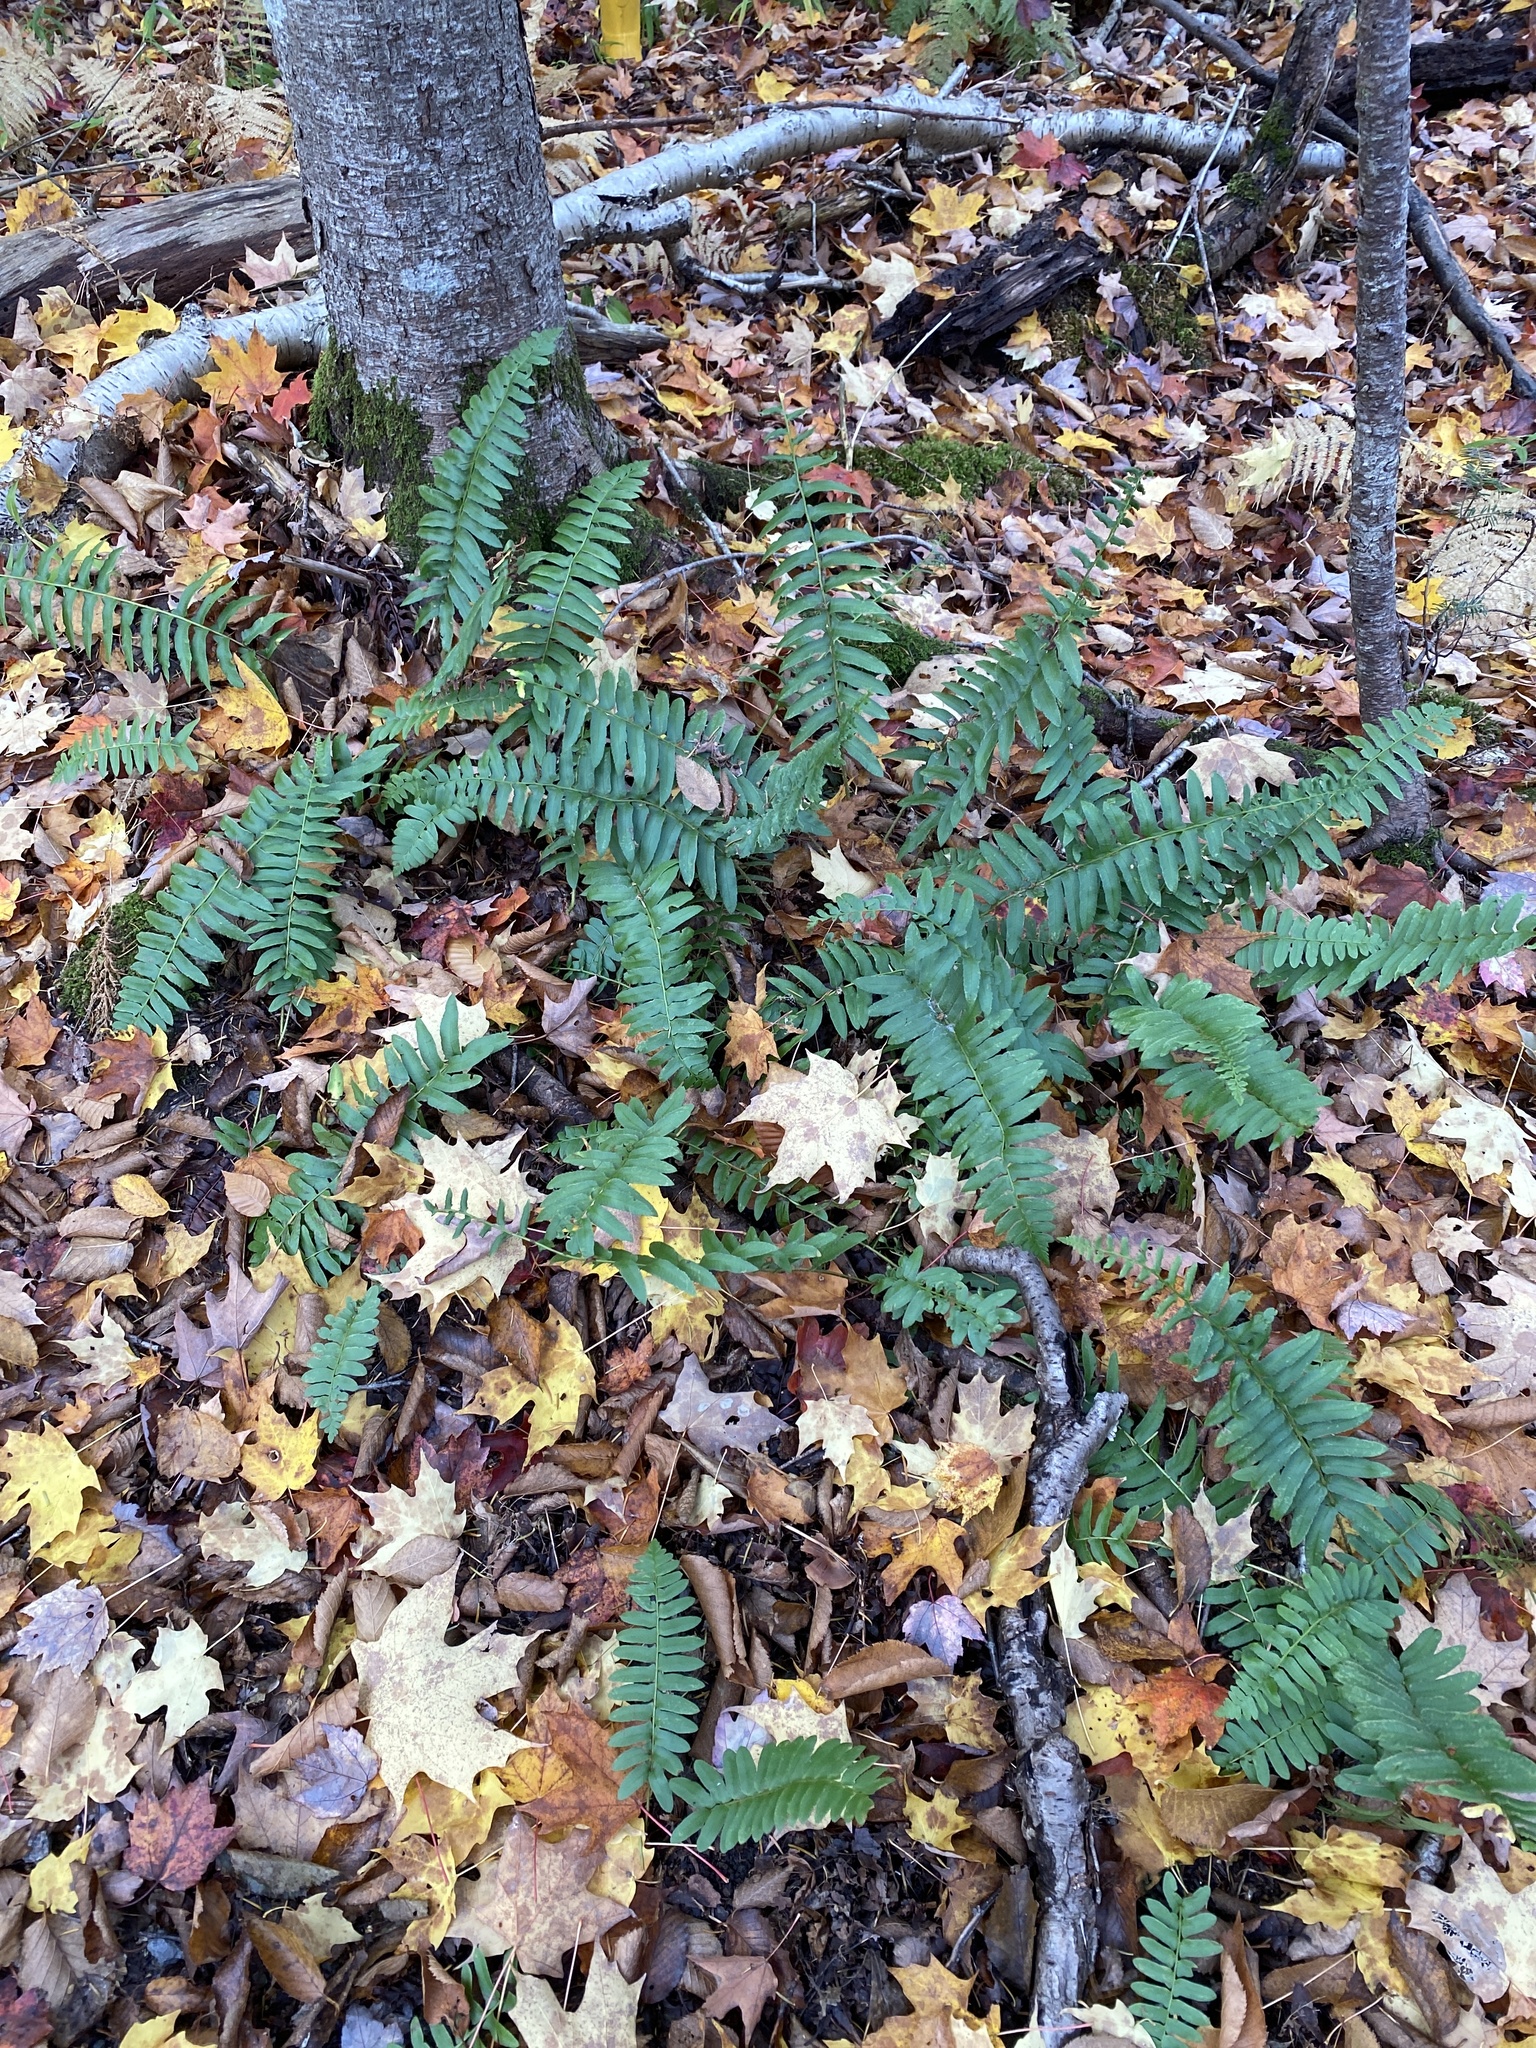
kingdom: Plantae
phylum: Tracheophyta
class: Polypodiopsida
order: Polypodiales
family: Dryopteridaceae
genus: Polystichum
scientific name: Polystichum acrostichoides
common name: Christmas fern
